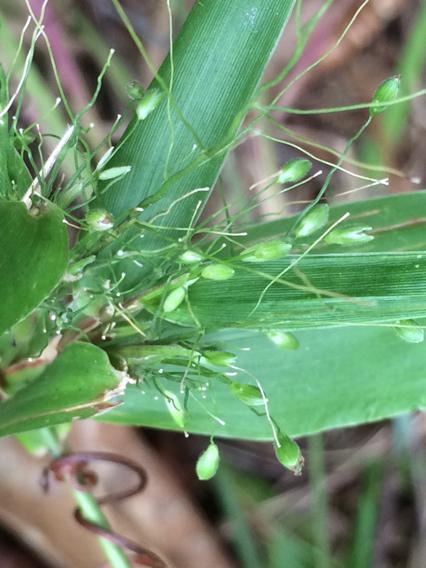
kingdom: Plantae
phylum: Tracheophyta
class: Liliopsida
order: Poales
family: Poaceae
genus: Dichanthelium
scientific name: Dichanthelium boscii
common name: Bosc's panic grass
